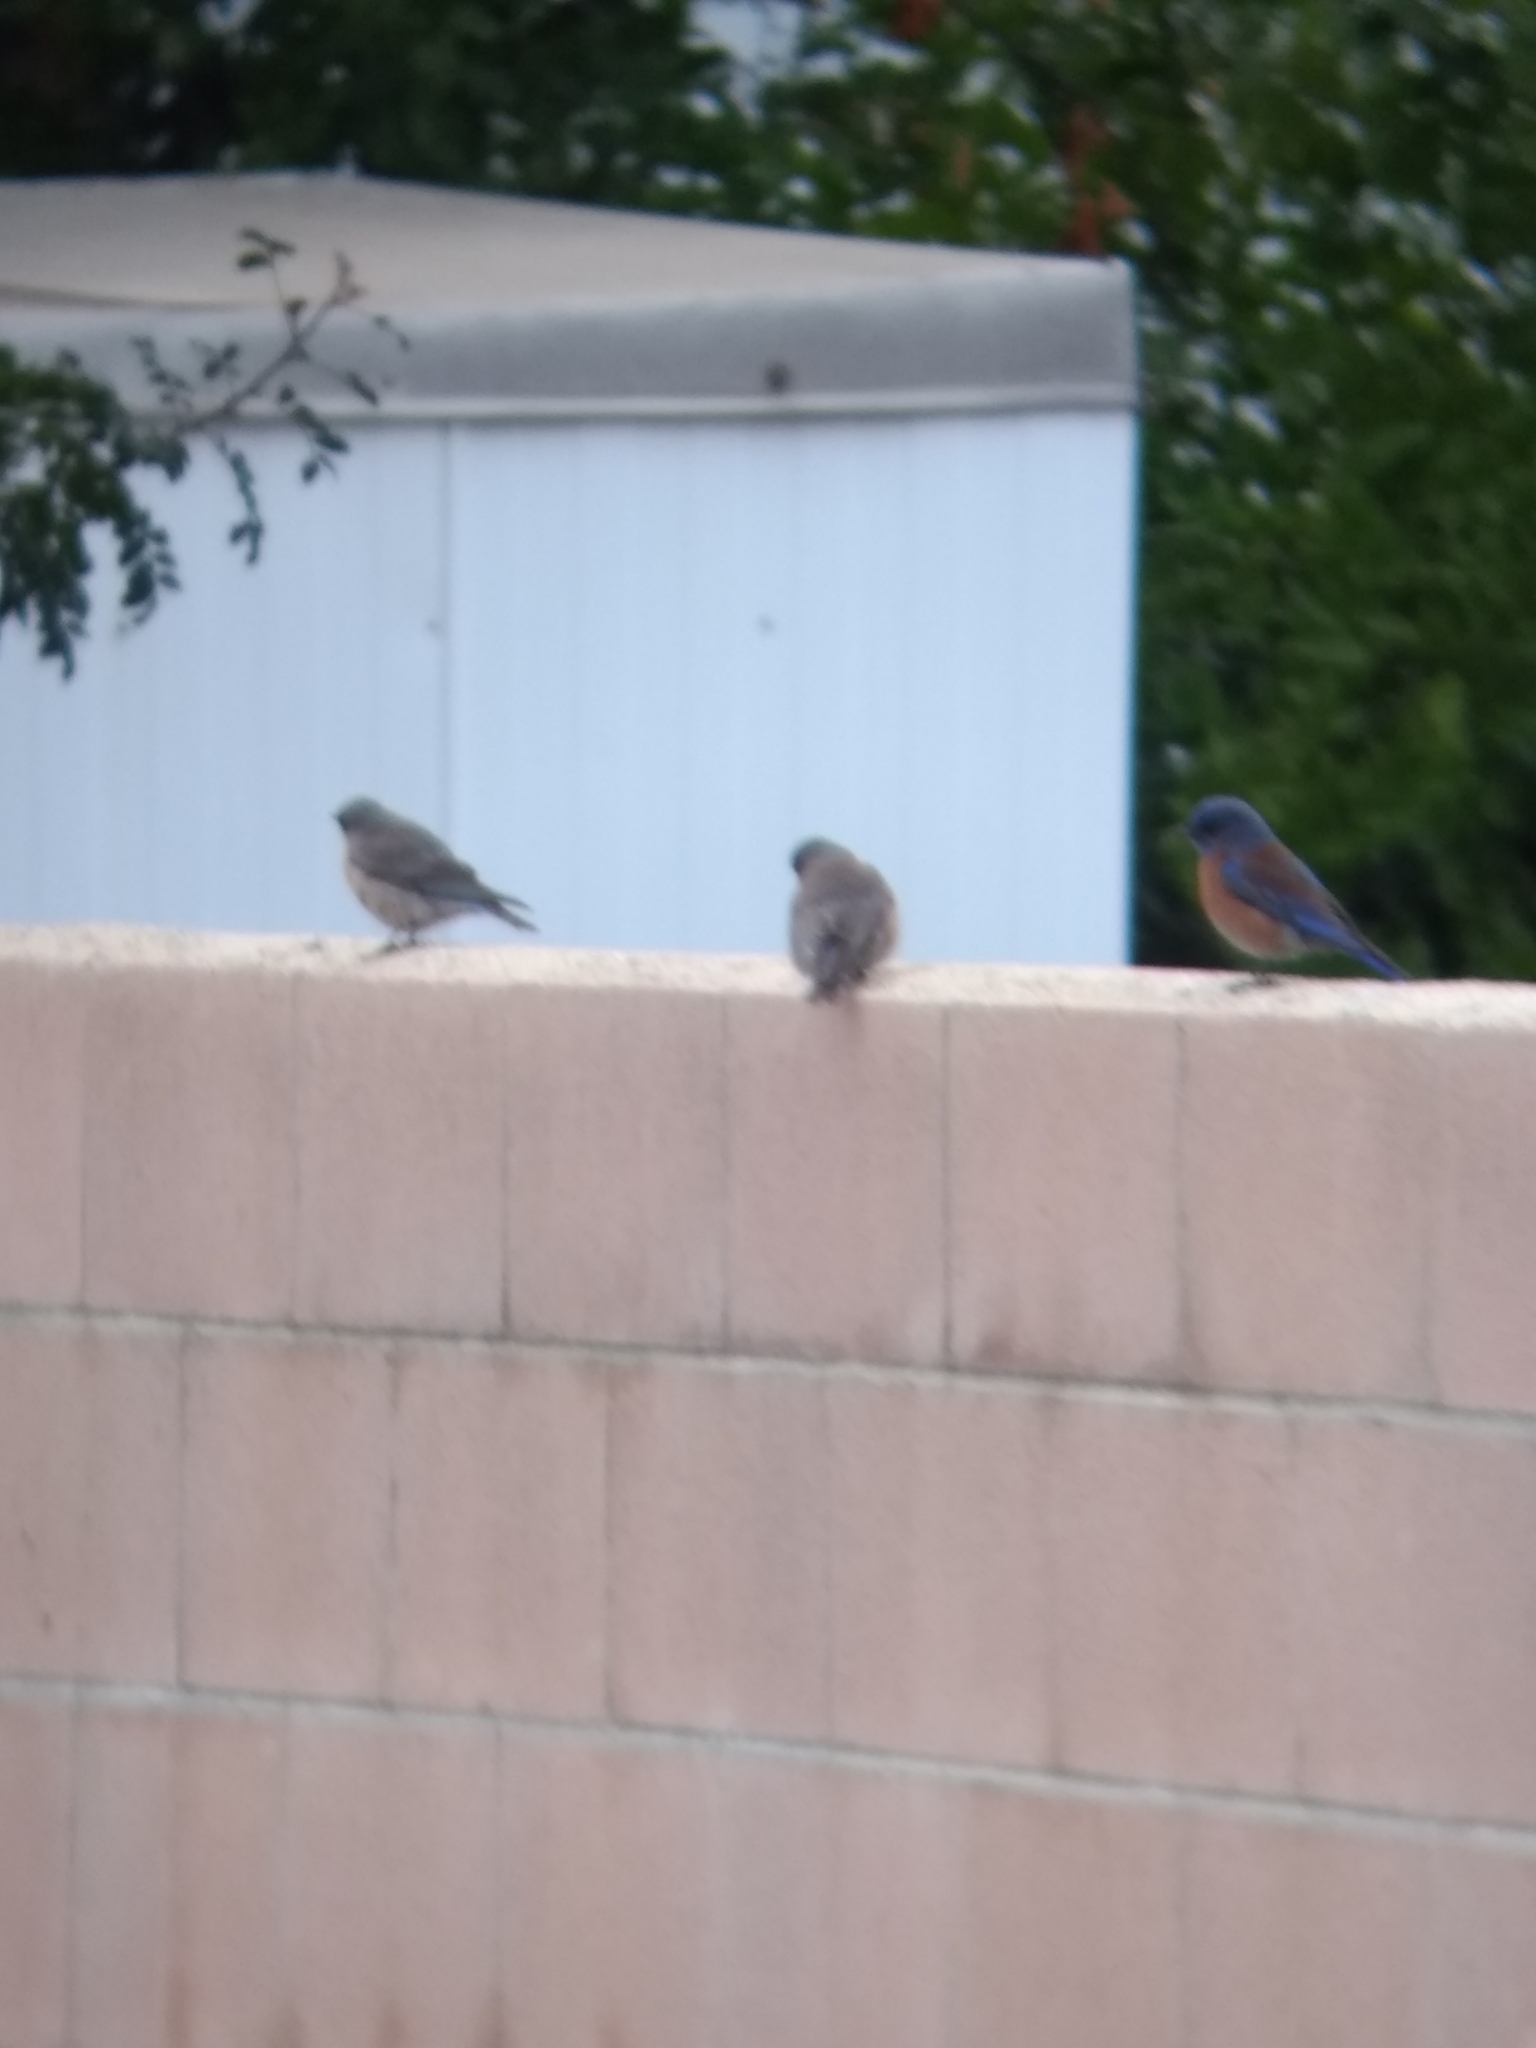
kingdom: Animalia
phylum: Chordata
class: Aves
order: Passeriformes
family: Turdidae
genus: Sialia
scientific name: Sialia mexicana
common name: Western bluebird
